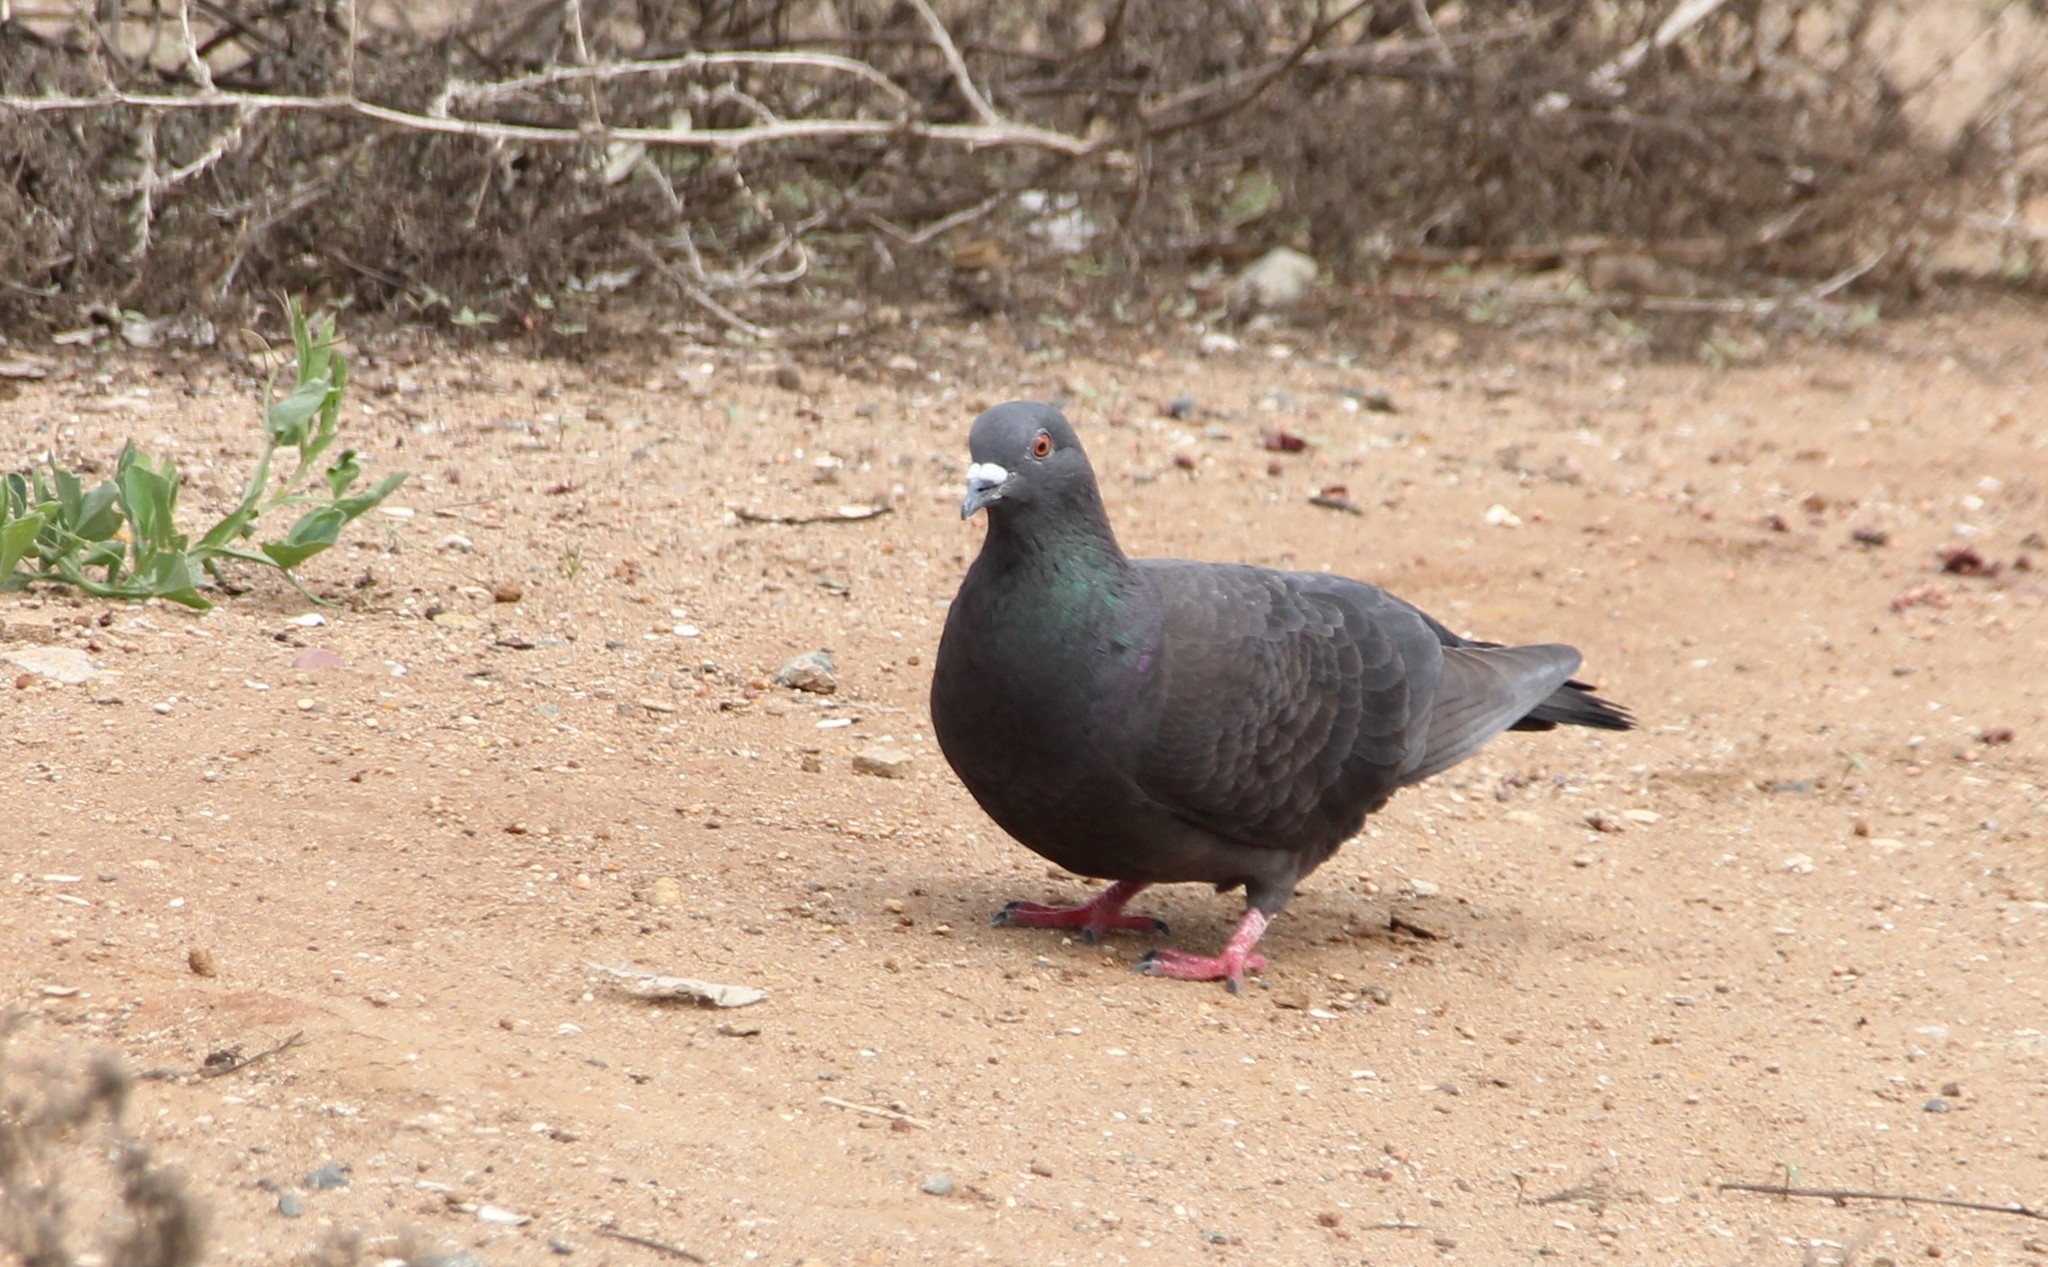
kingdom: Animalia
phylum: Chordata
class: Aves
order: Columbiformes
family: Columbidae
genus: Columba
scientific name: Columba livia
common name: Rock pigeon
